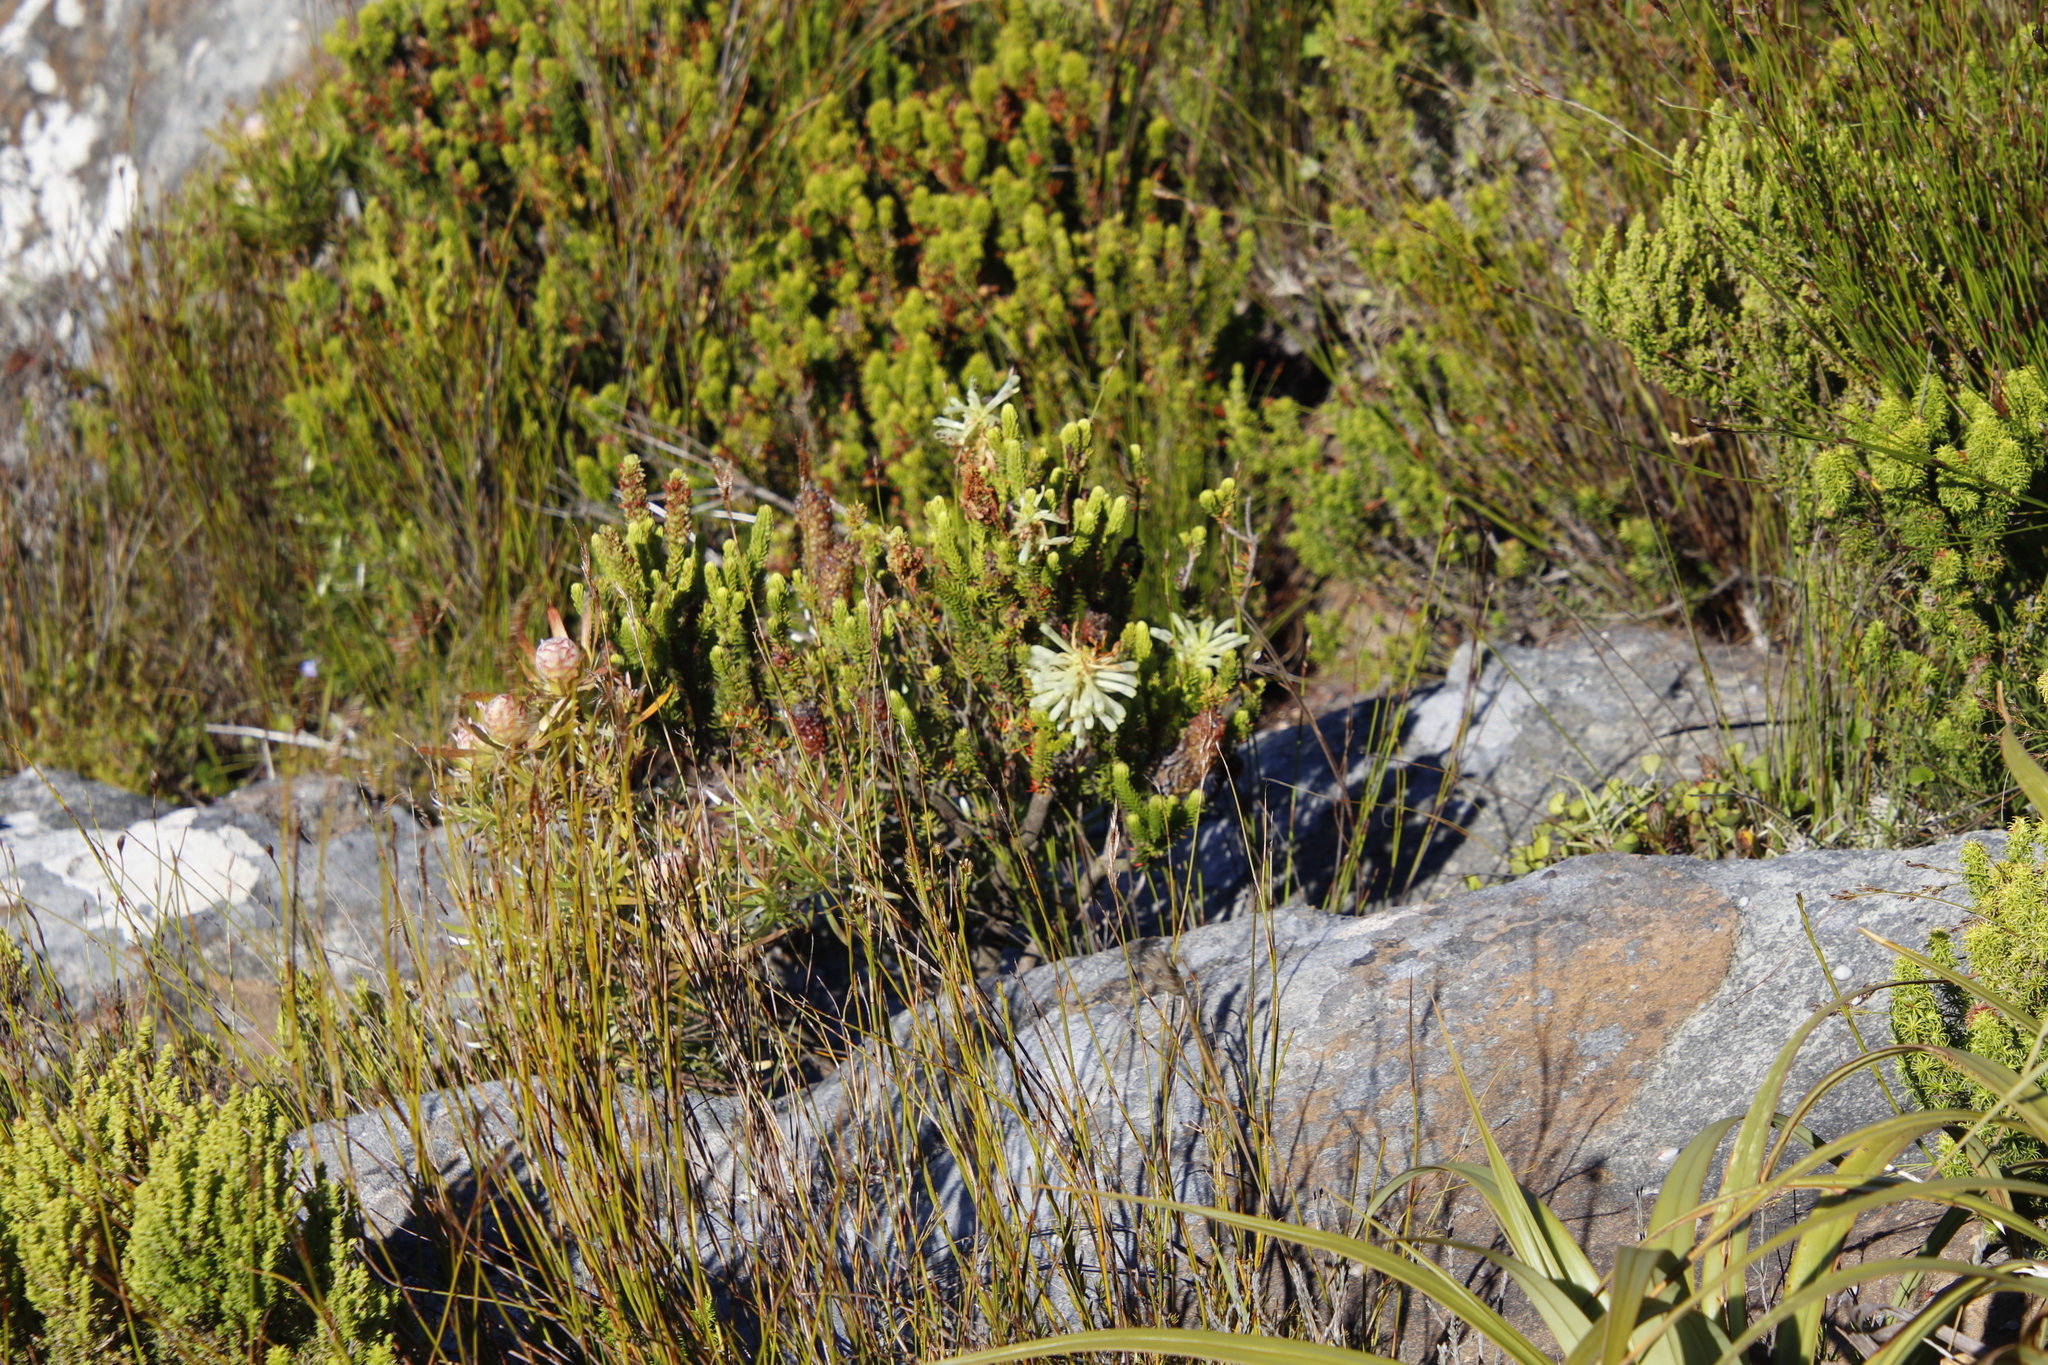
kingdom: Plantae
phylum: Tracheophyta
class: Magnoliopsida
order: Ericales
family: Ericaceae
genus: Erica
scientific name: Erica sessiliflora
